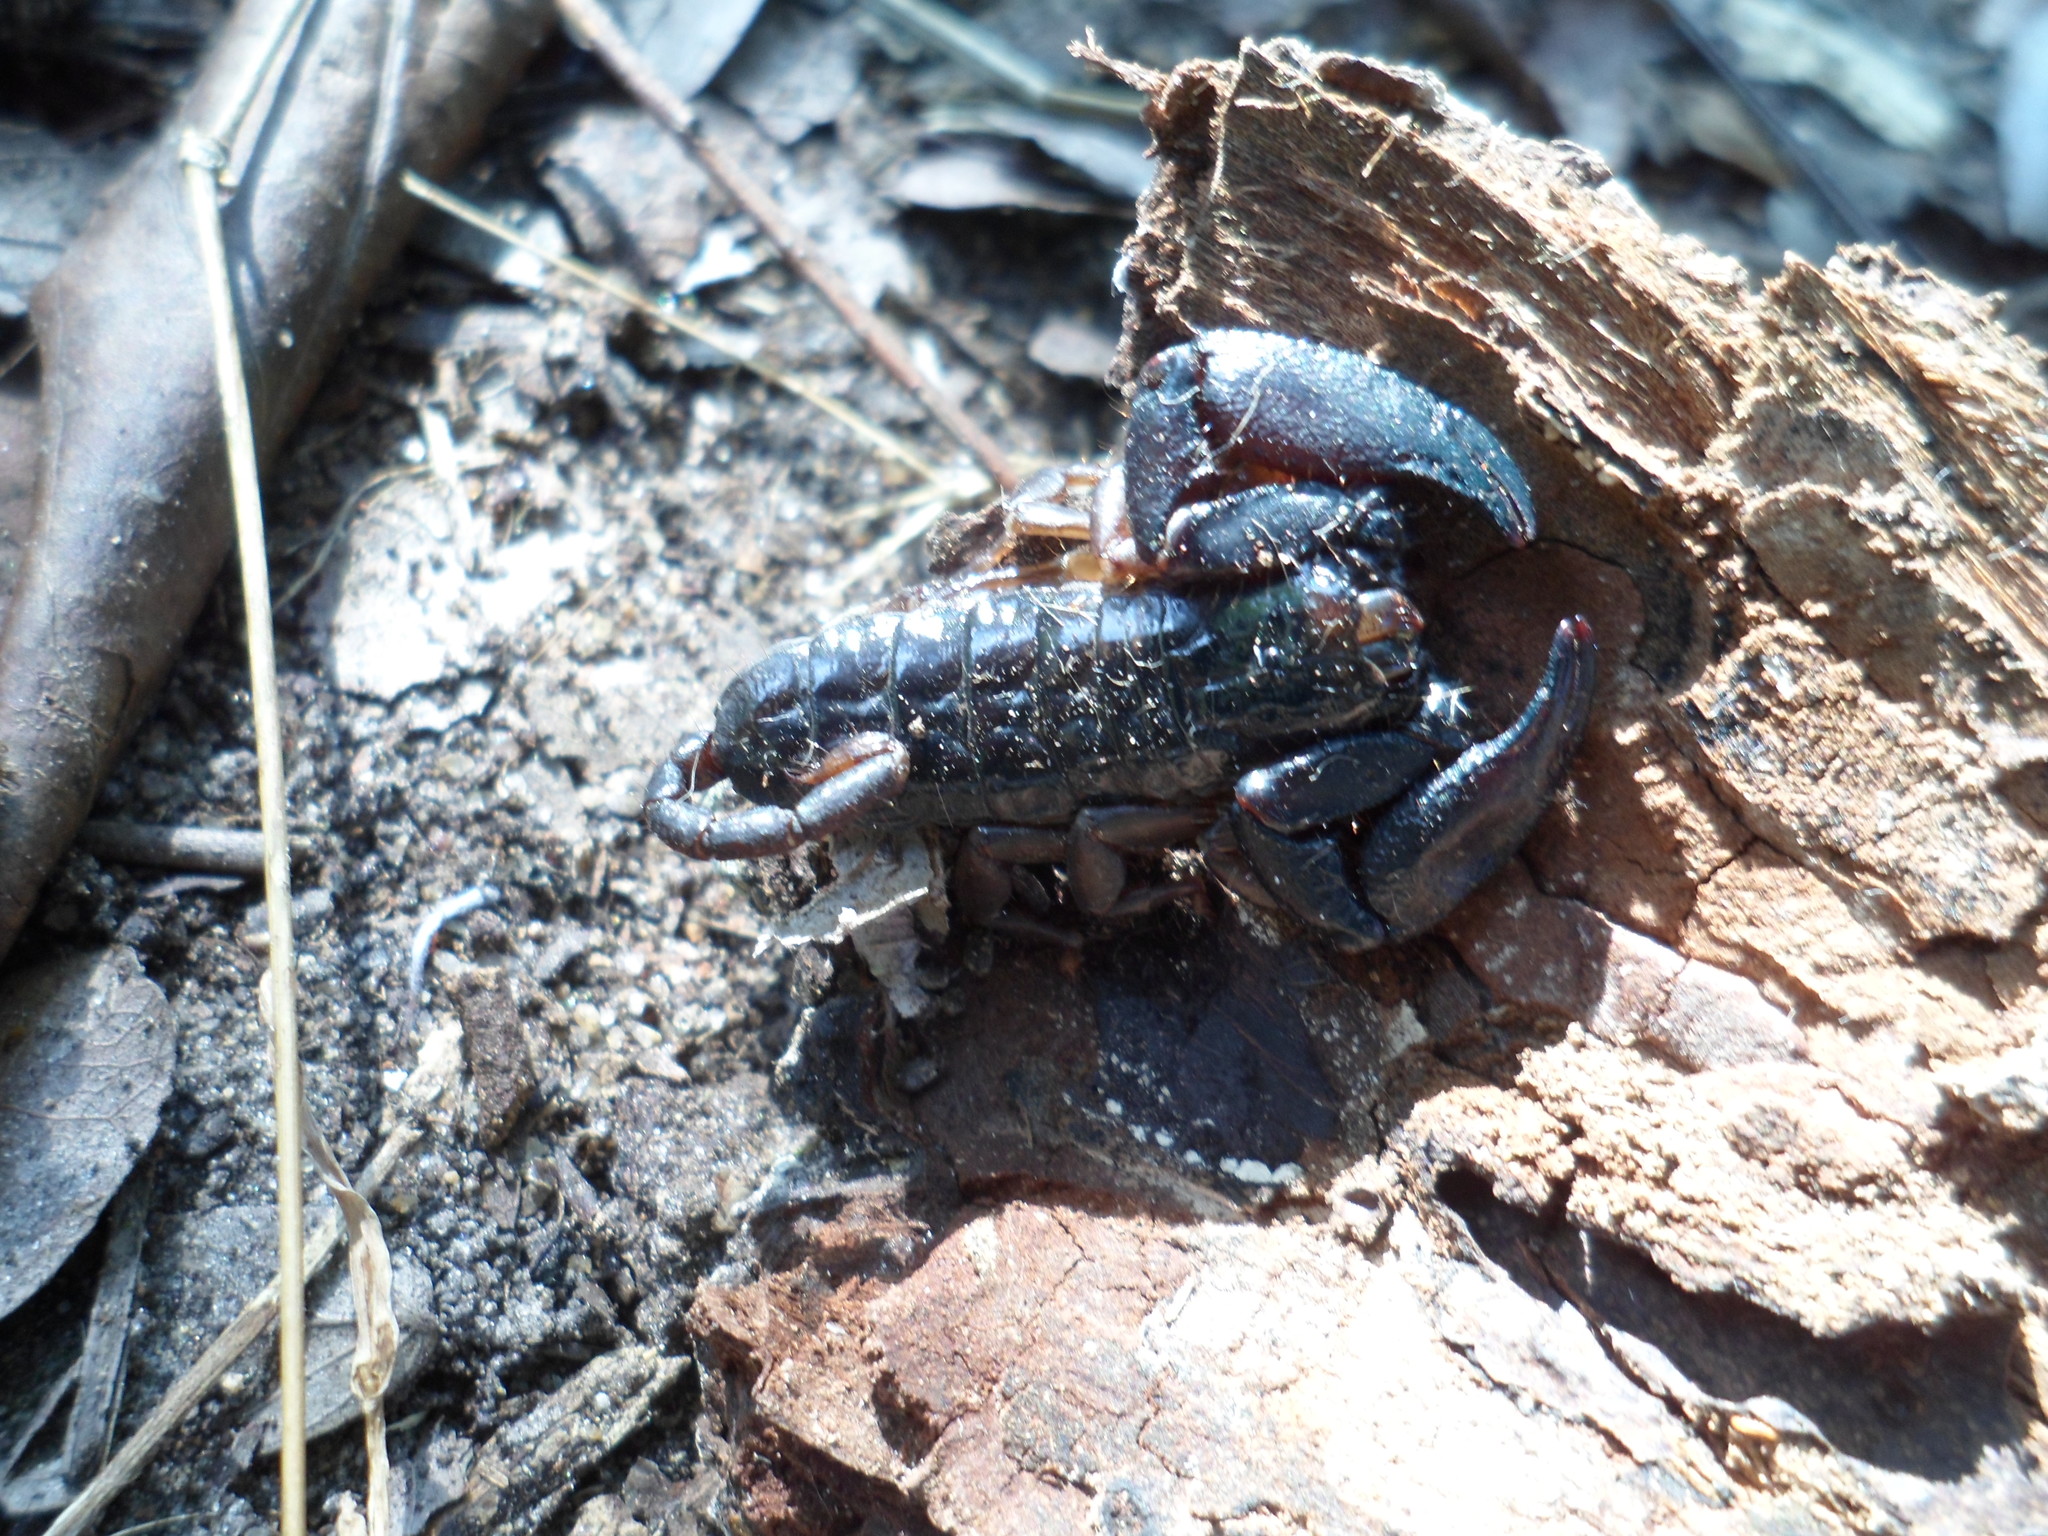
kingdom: Animalia
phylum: Arthropoda
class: Arachnida
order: Scorpiones
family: Hormuridae
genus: Iomachus
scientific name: Iomachus politus
